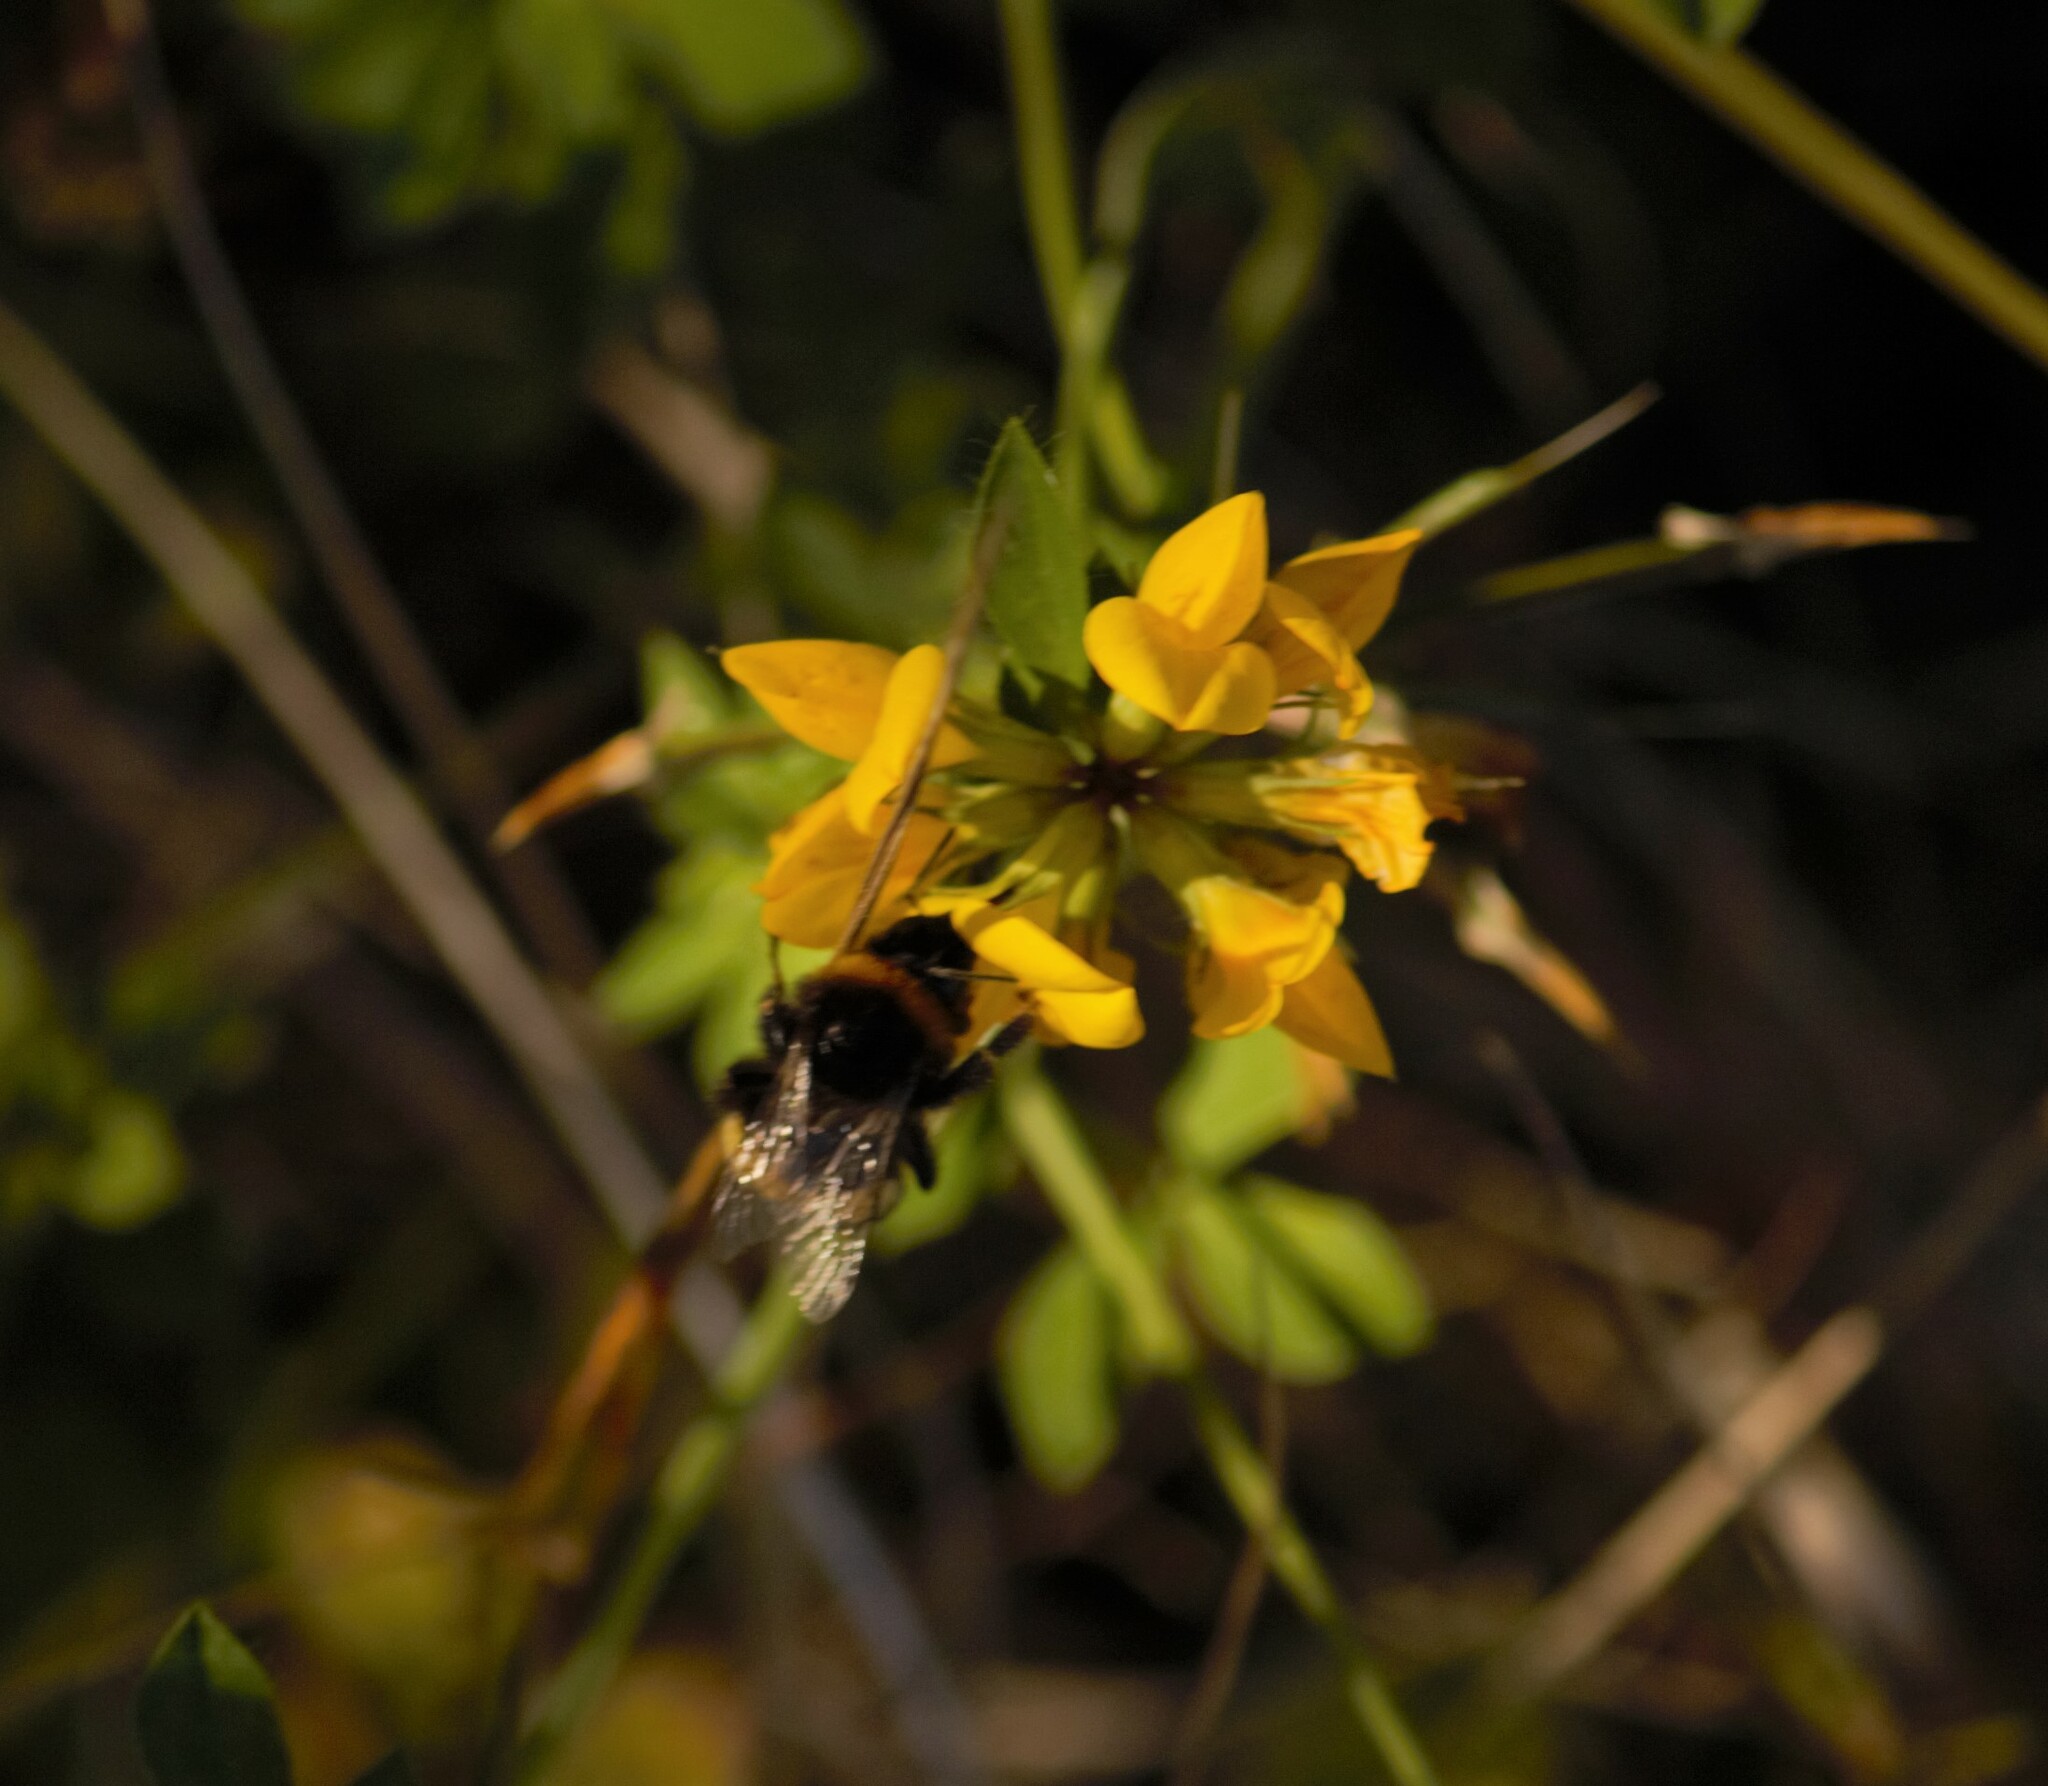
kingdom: Animalia
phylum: Arthropoda
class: Insecta
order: Hymenoptera
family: Apidae
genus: Bombus
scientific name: Bombus terrestris
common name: Buff-tailed bumblebee
